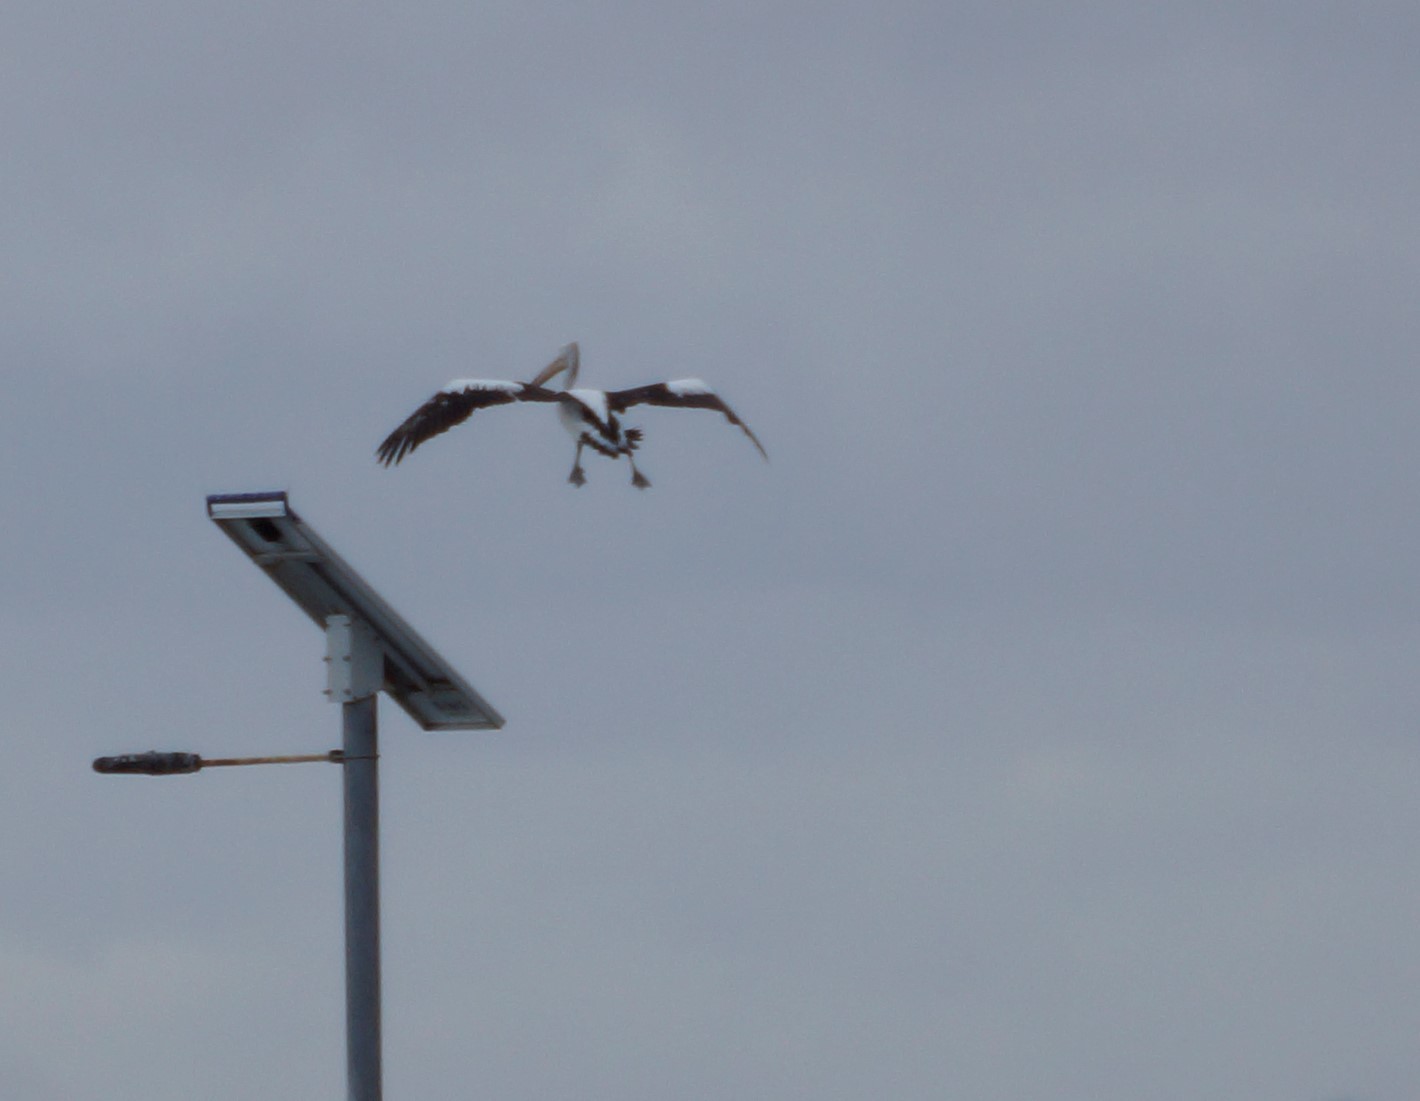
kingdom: Animalia
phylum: Chordata
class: Aves
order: Pelecaniformes
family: Pelecanidae
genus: Pelecanus
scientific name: Pelecanus conspicillatus
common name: Australian pelican
